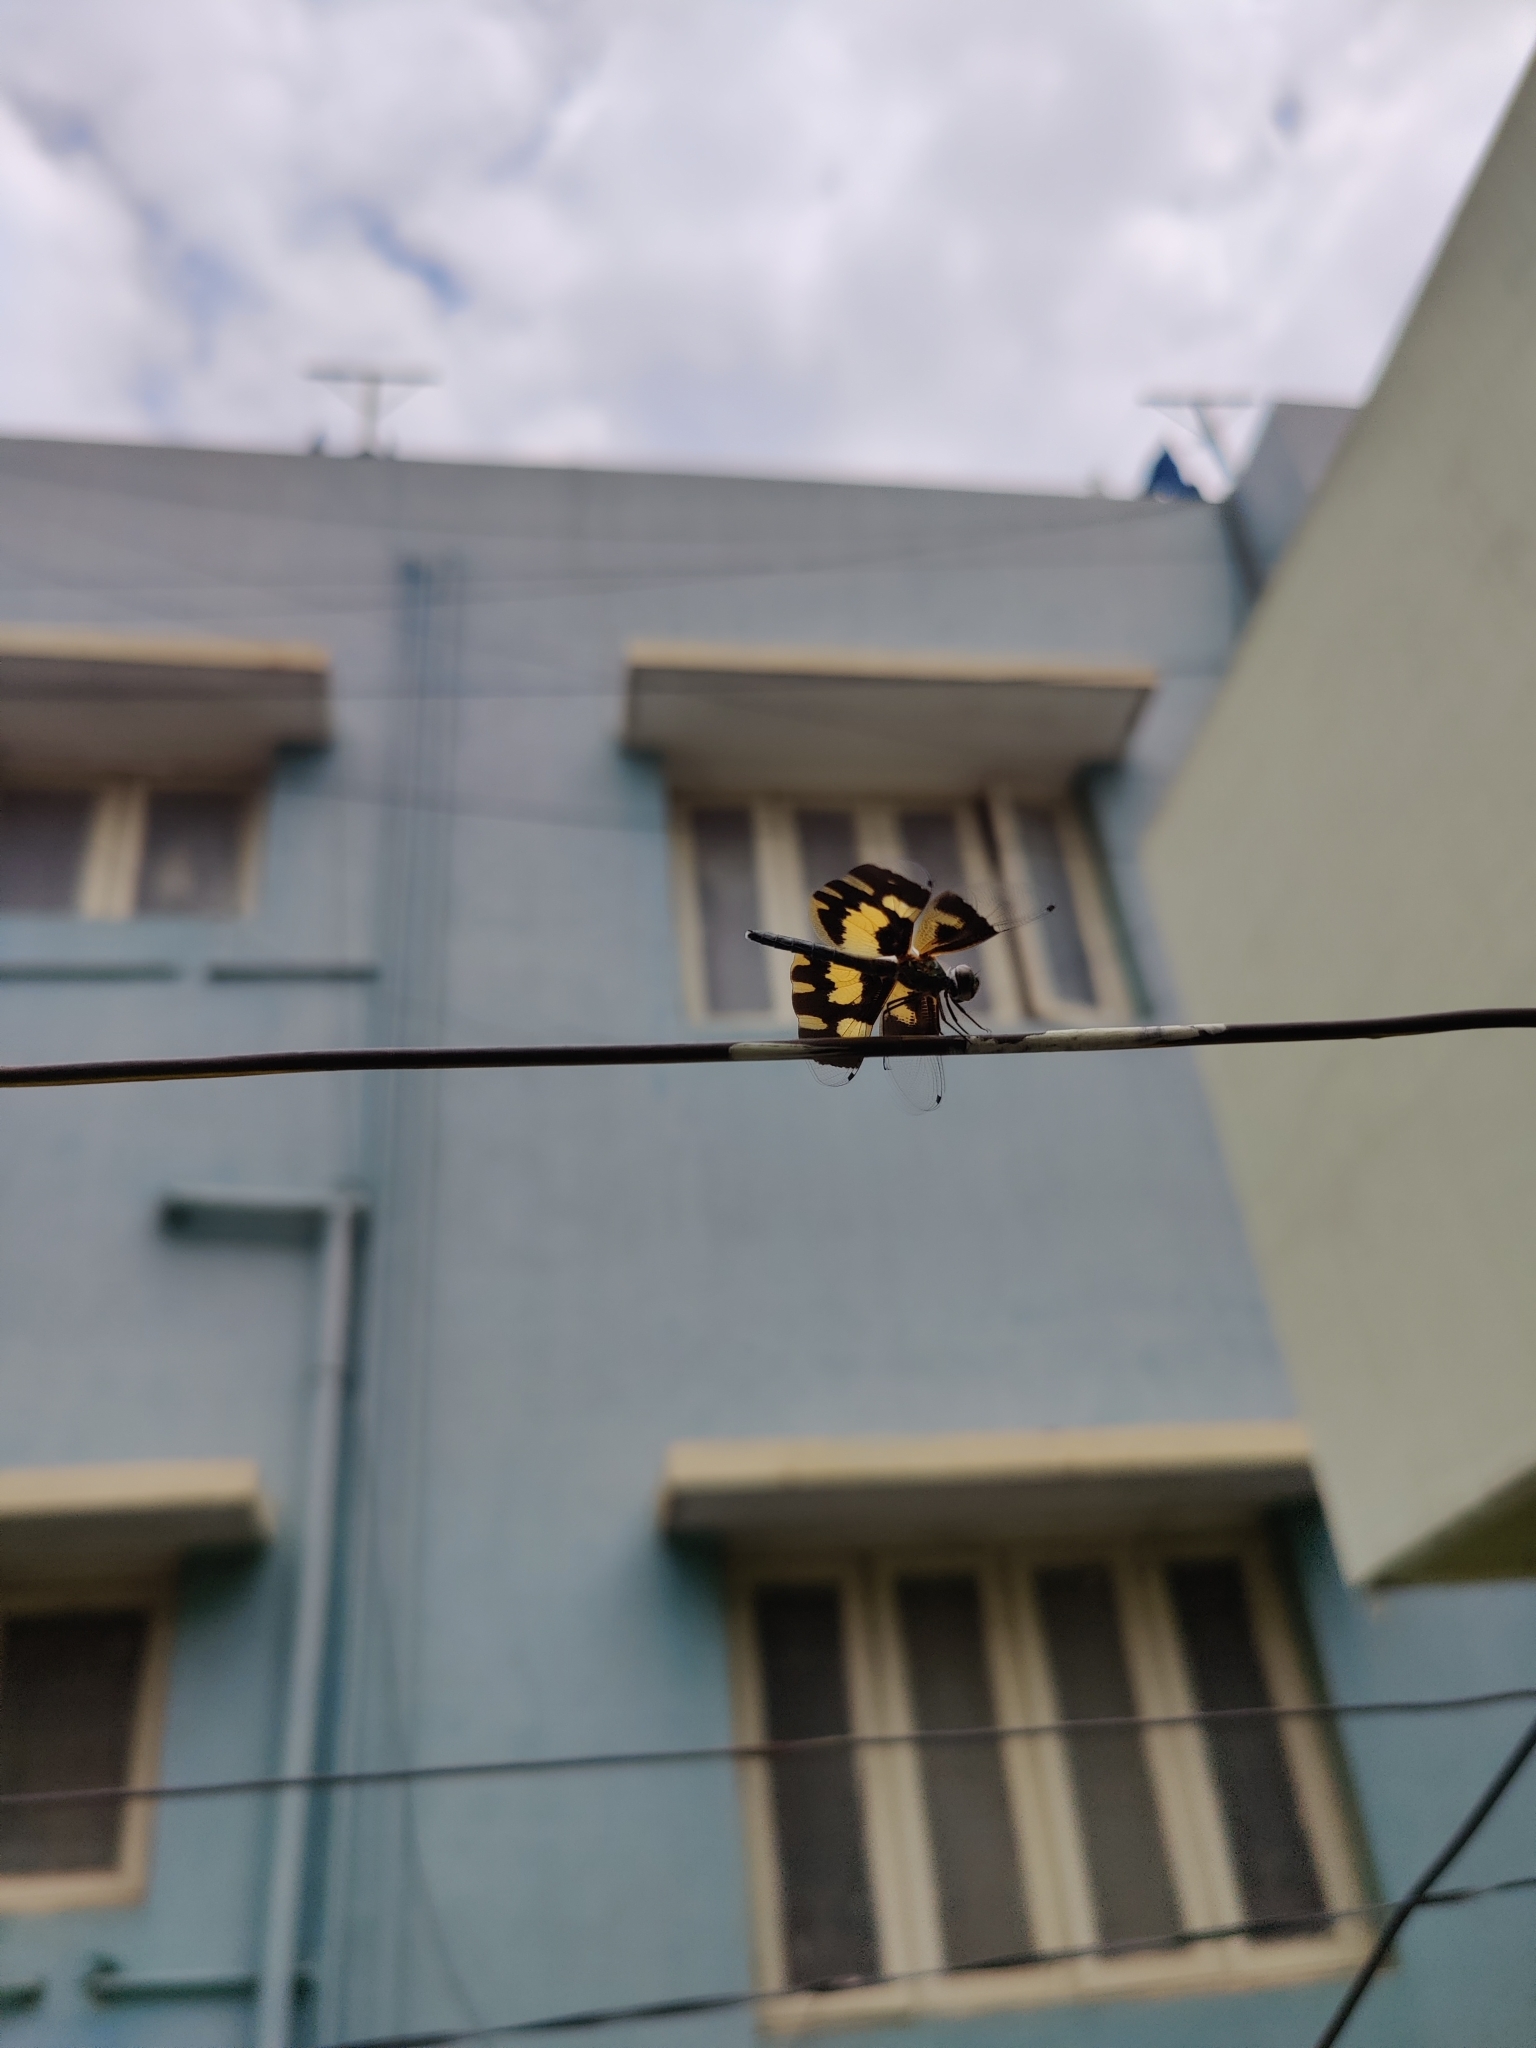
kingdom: Animalia
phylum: Arthropoda
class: Insecta
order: Odonata
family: Libellulidae
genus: Rhyothemis
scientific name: Rhyothemis variegata
